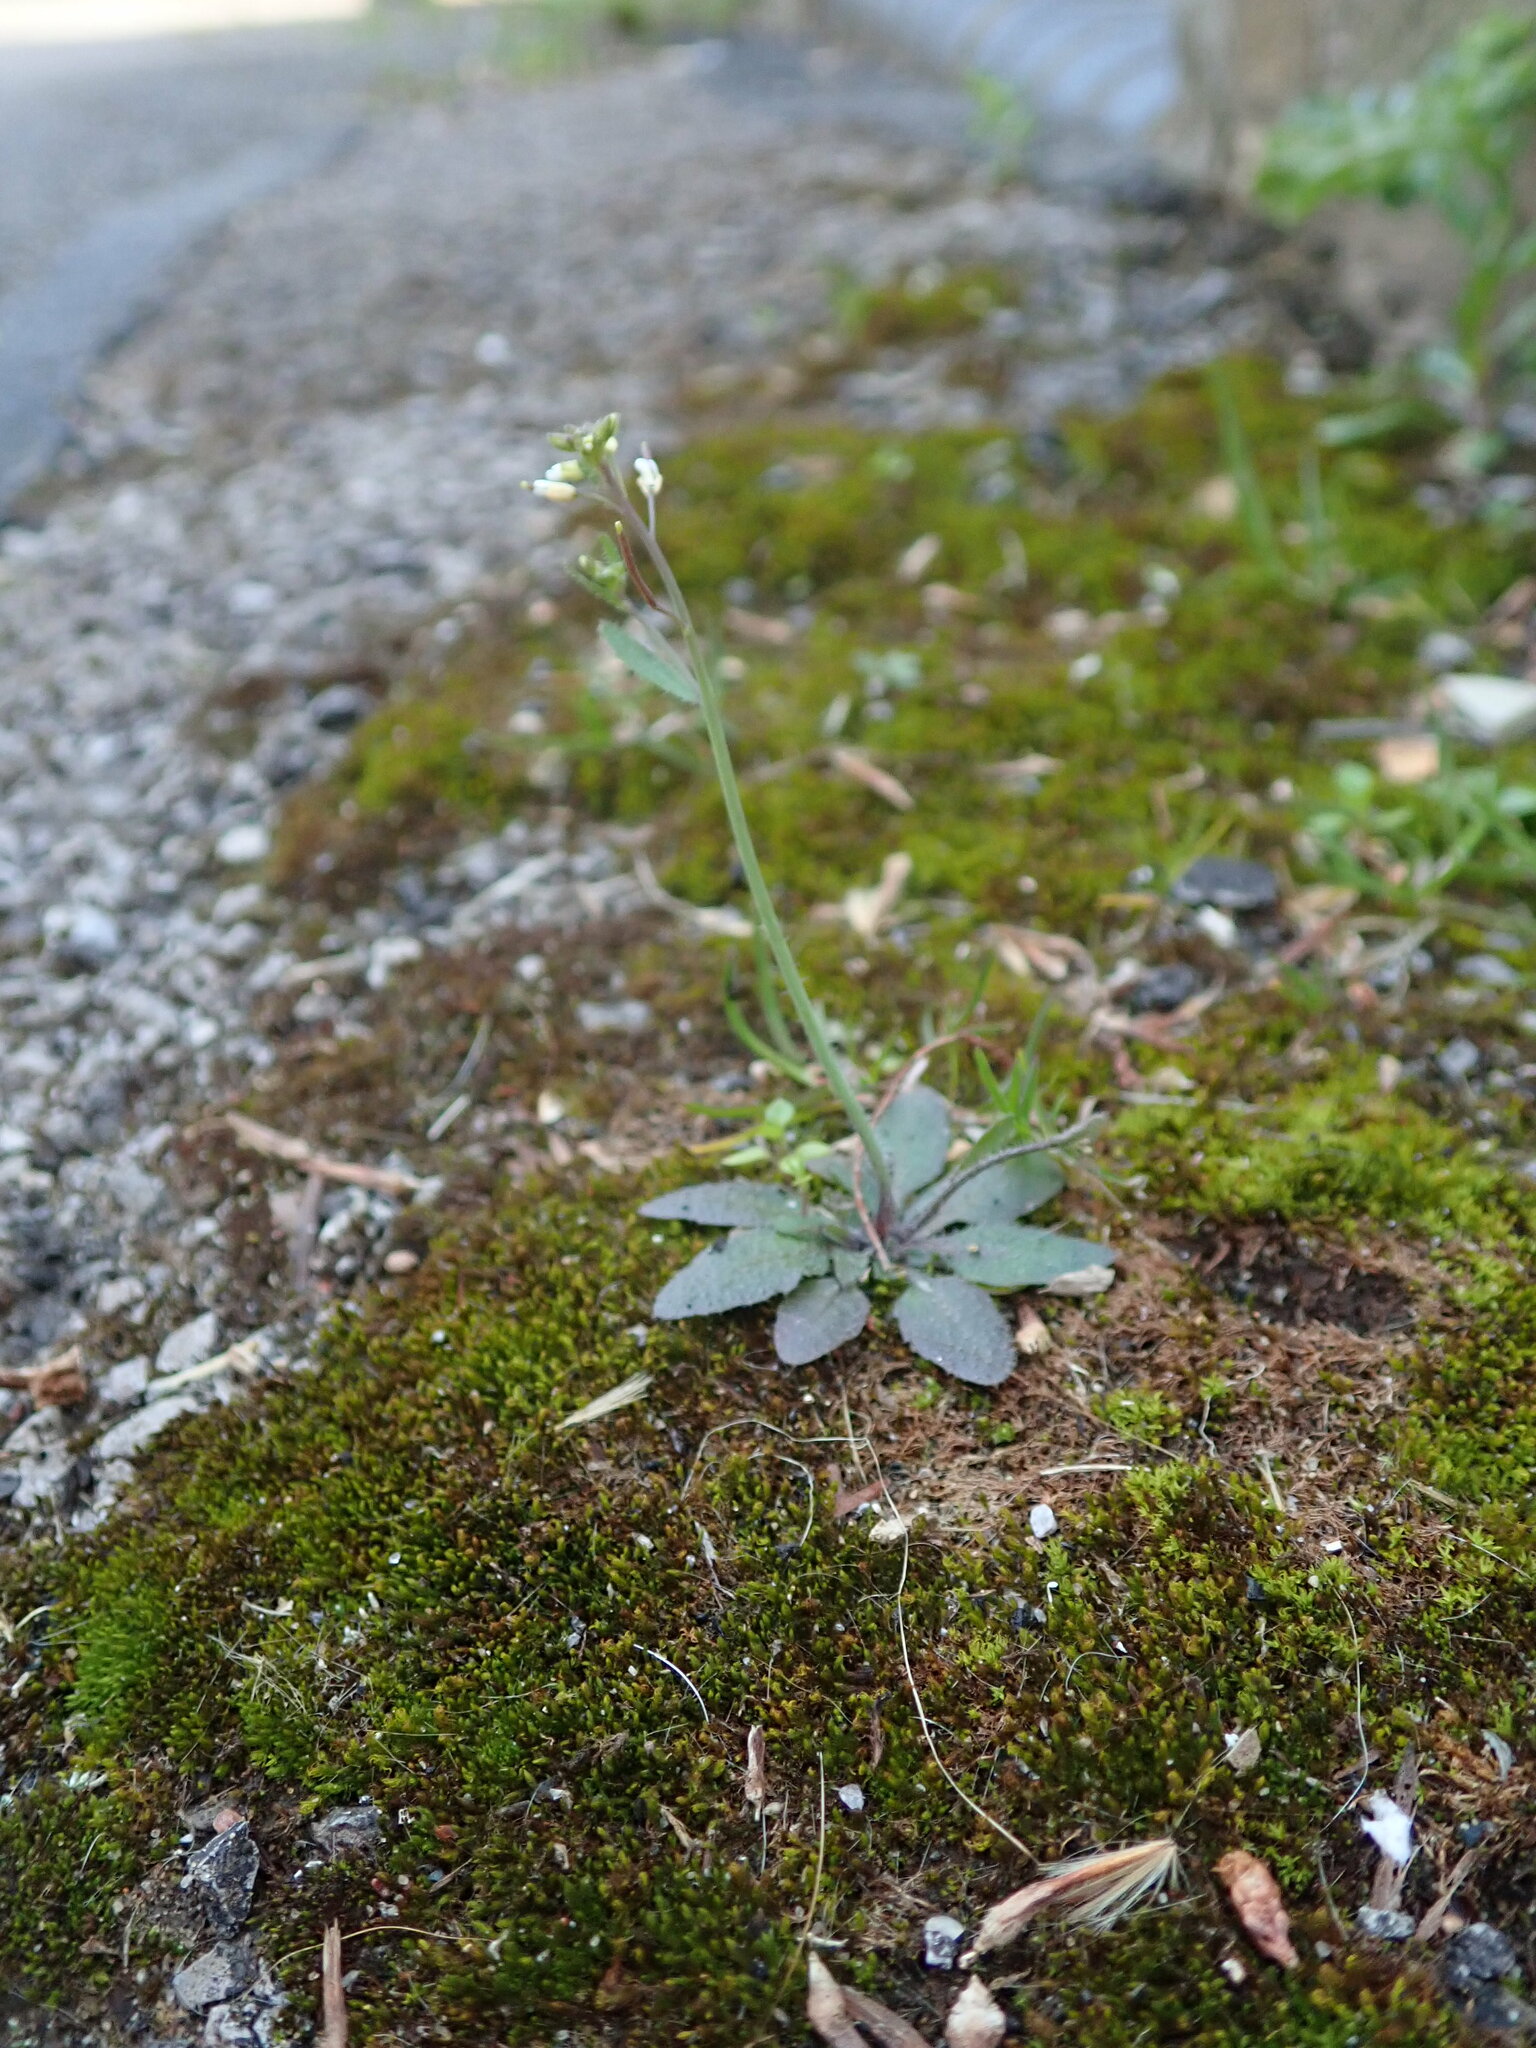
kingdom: Plantae
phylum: Tracheophyta
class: Magnoliopsida
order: Brassicales
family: Brassicaceae
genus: Arabidopsis
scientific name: Arabidopsis thaliana
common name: Thale cress
